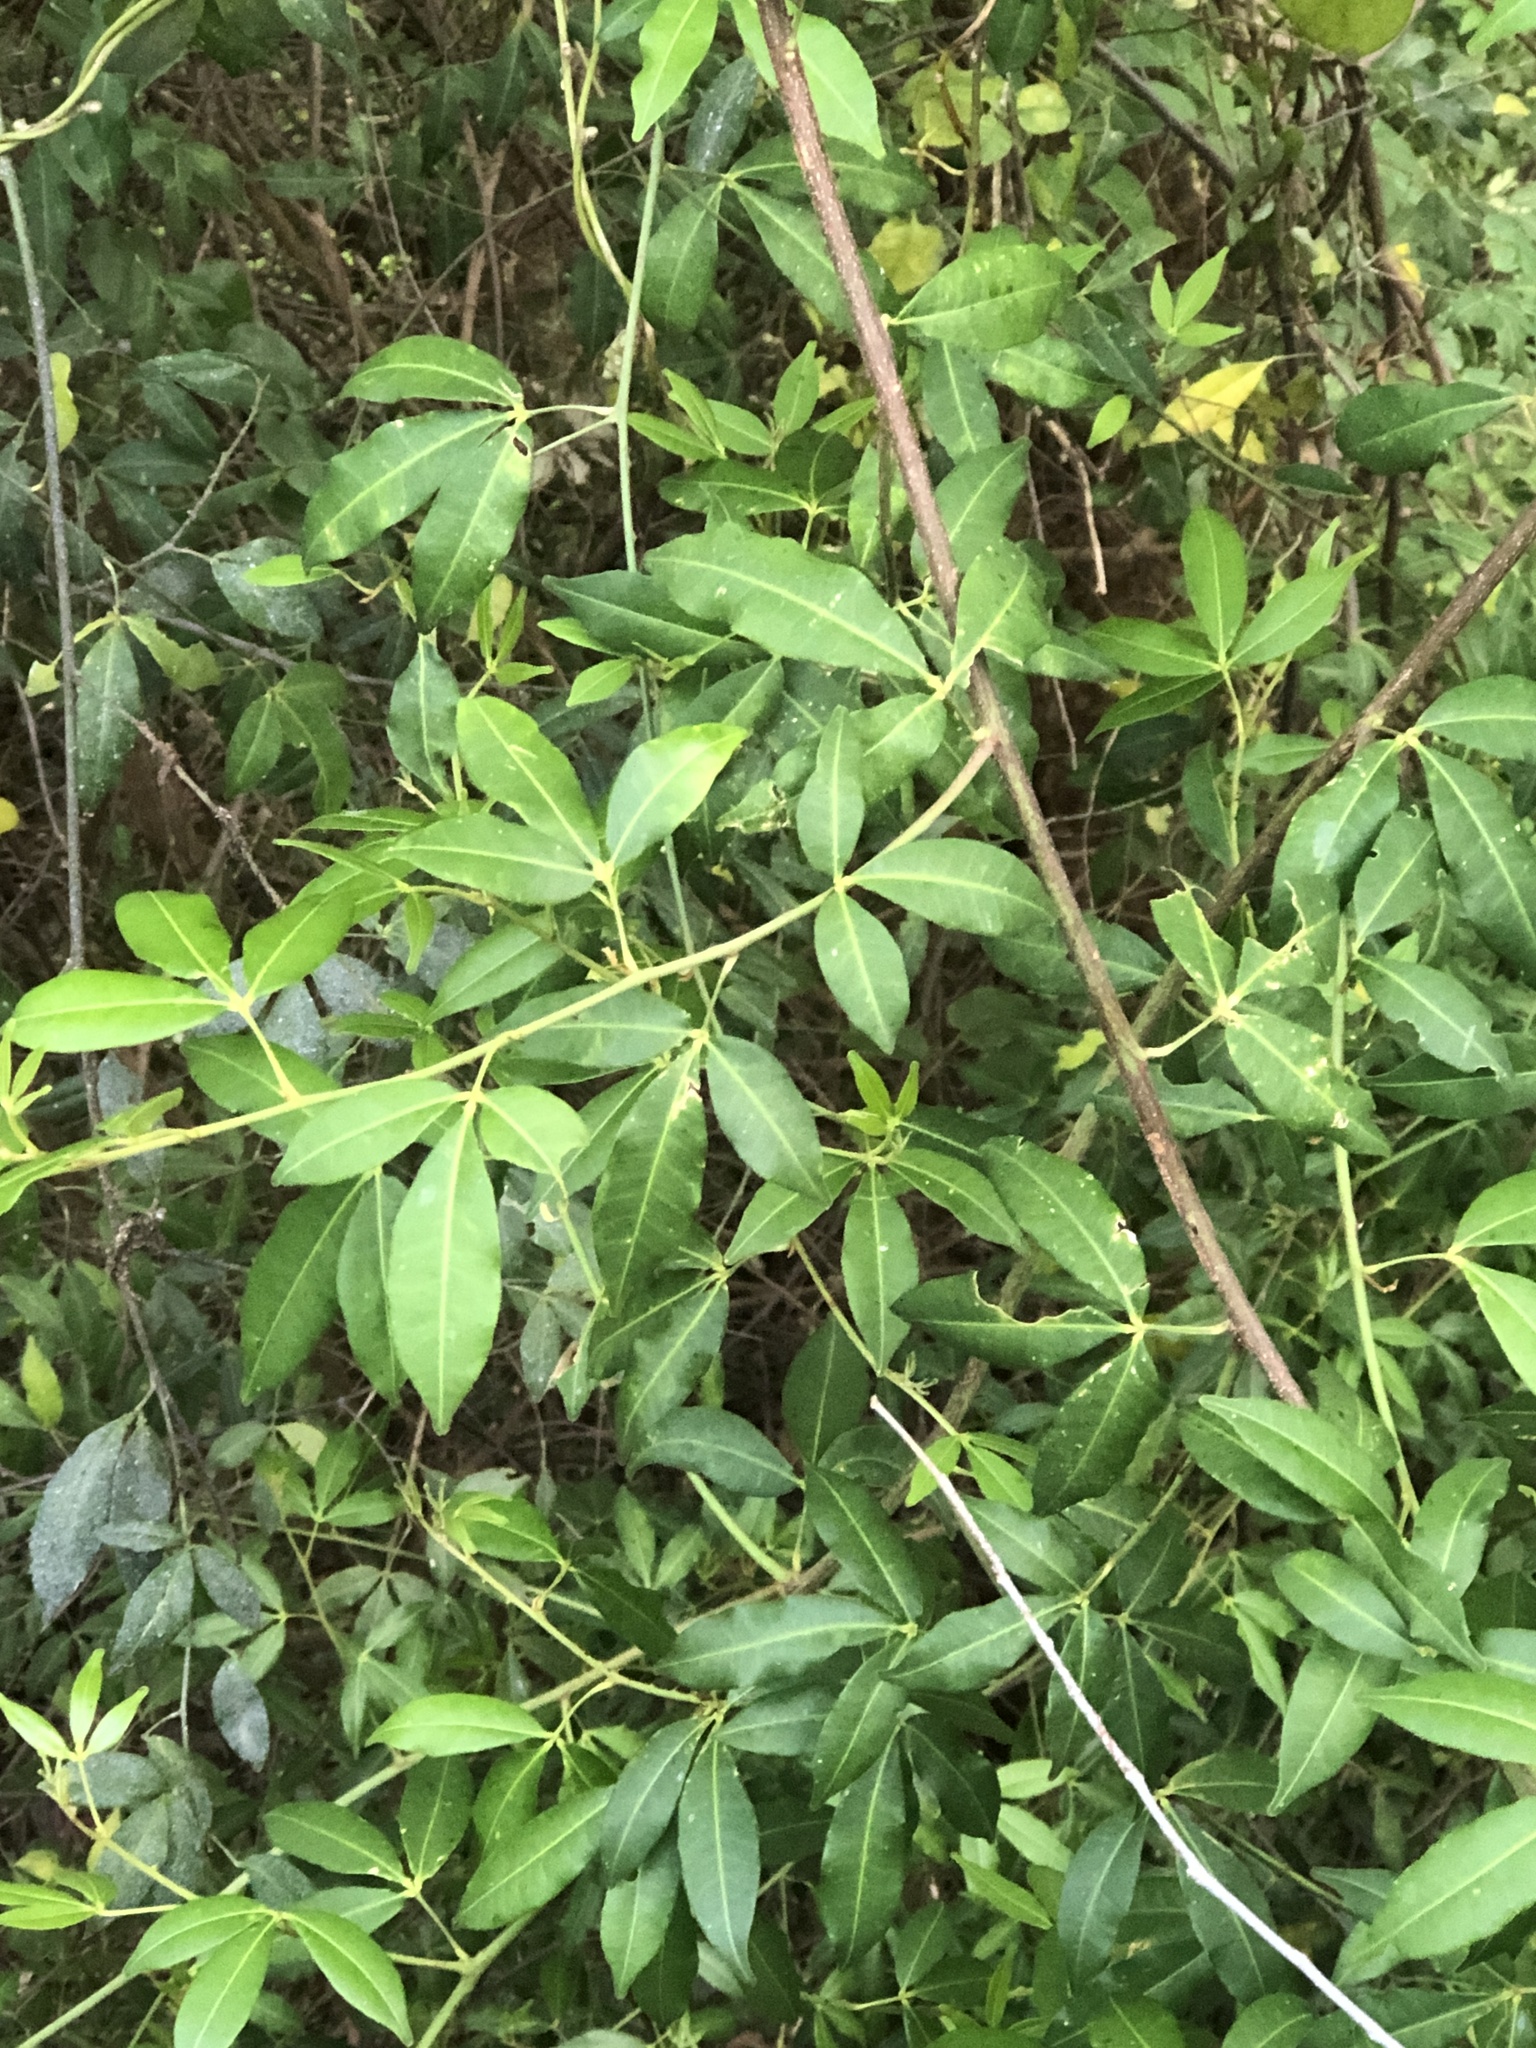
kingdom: Plantae
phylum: Tracheophyta
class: Magnoliopsida
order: Sapindales
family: Rutaceae
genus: Zanthoxylum
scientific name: Zanthoxylum asiaticum
